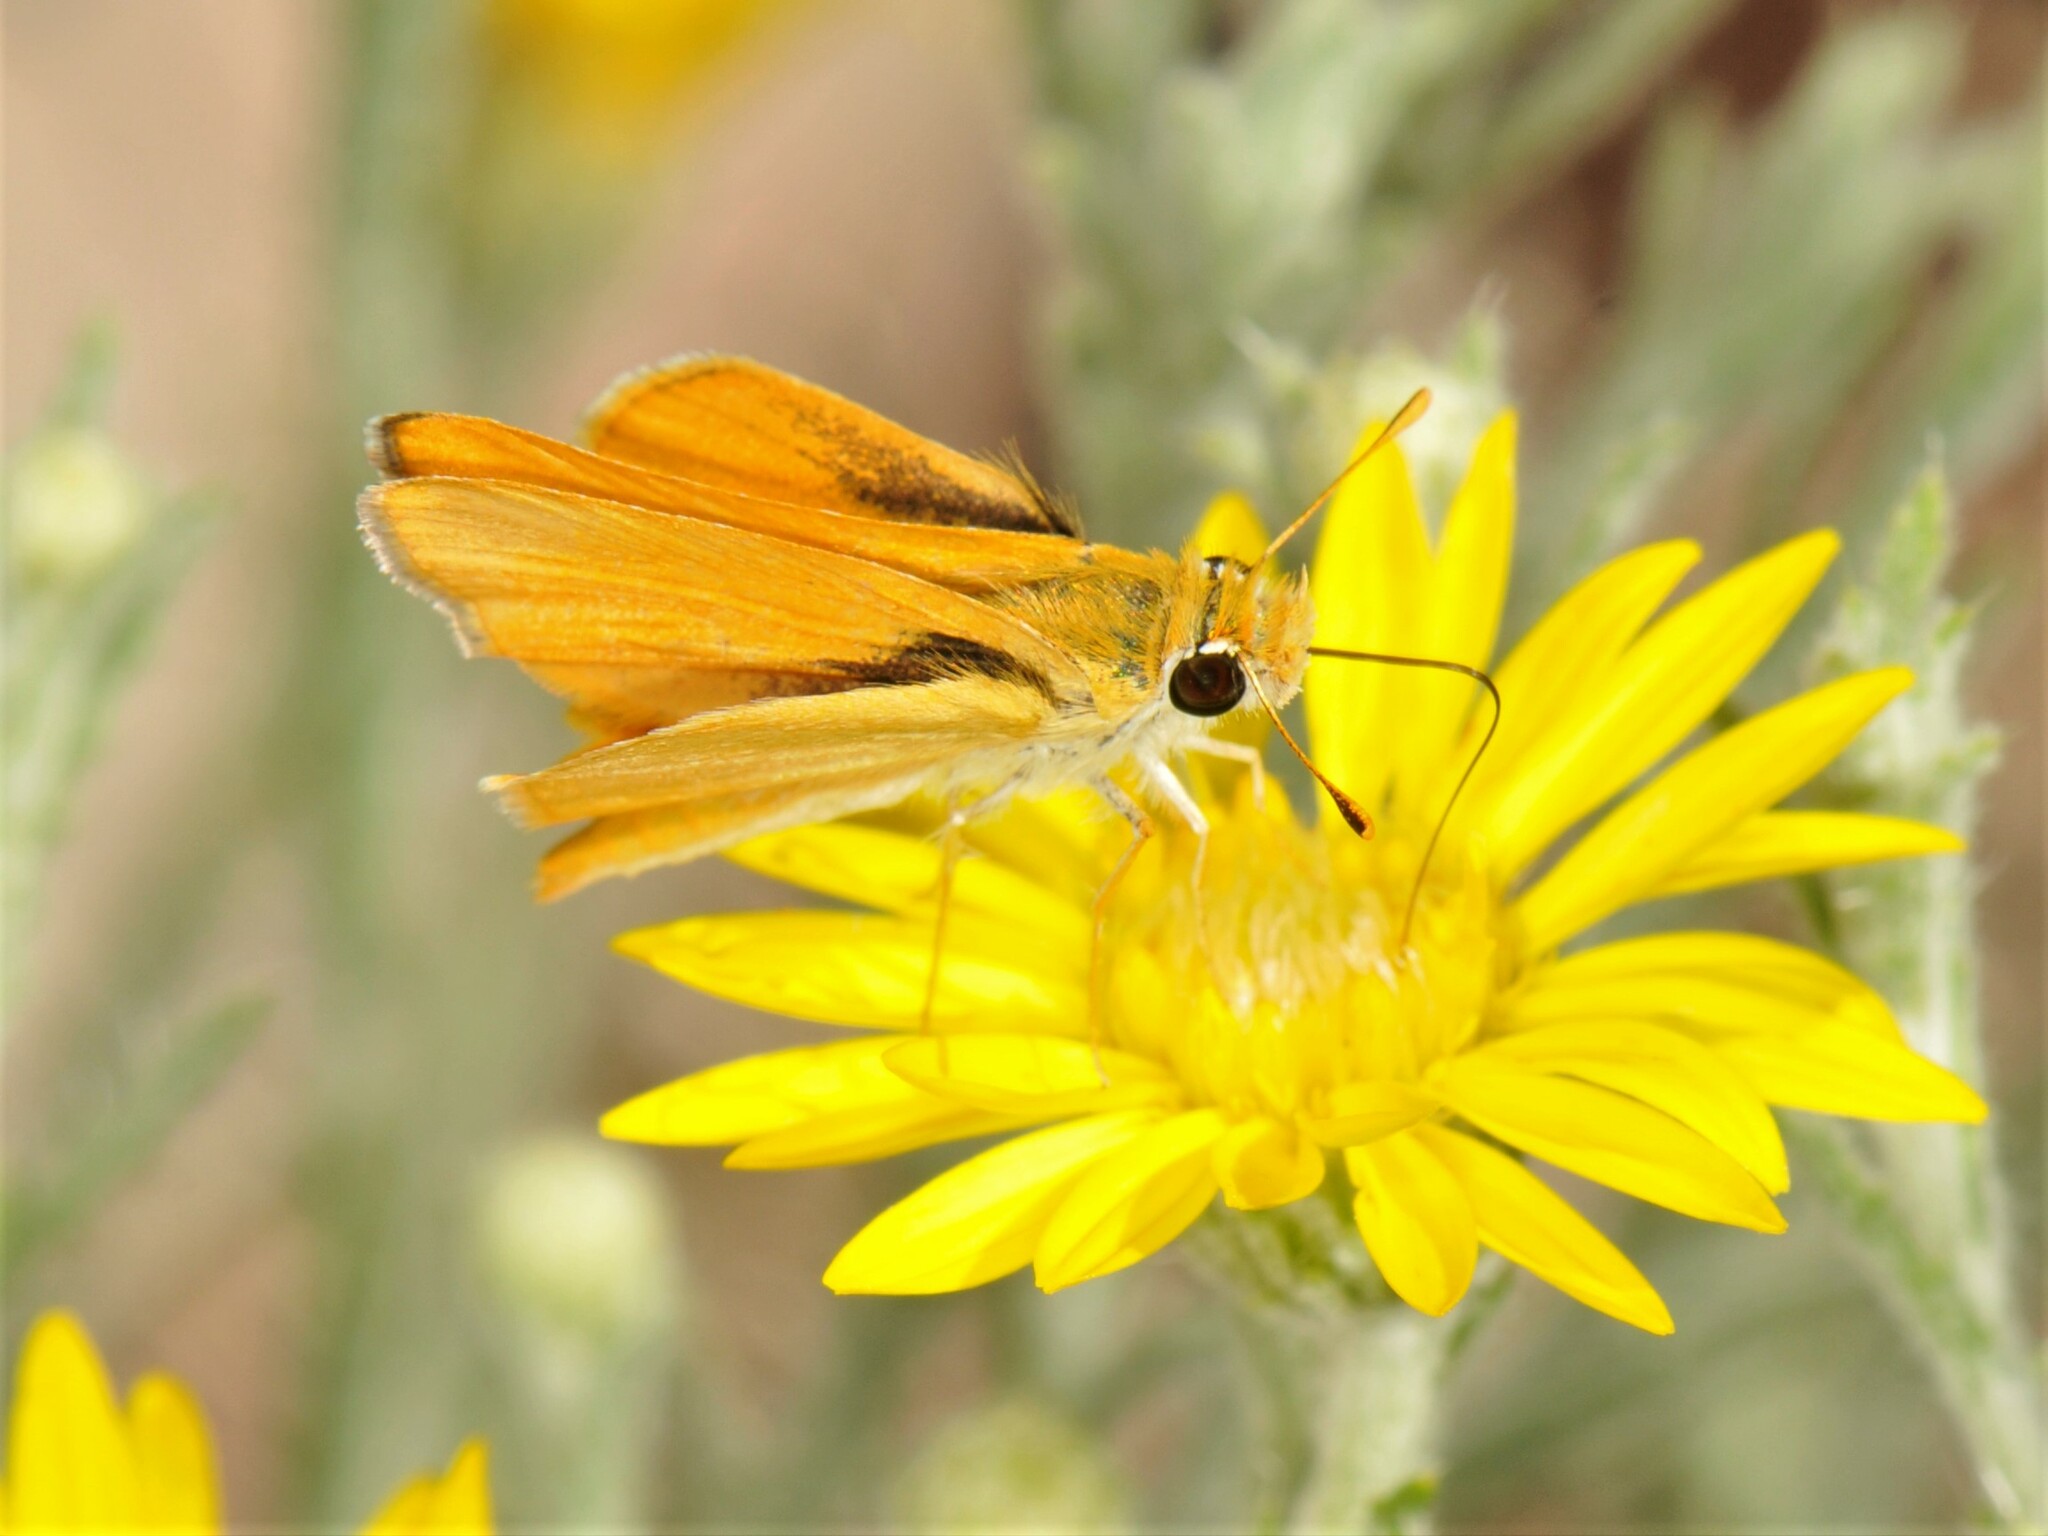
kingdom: Animalia
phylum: Arthropoda
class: Insecta
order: Lepidoptera
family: Hesperiidae
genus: Copaeodes
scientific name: Copaeodes aurantiaca
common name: Orange skipperling
